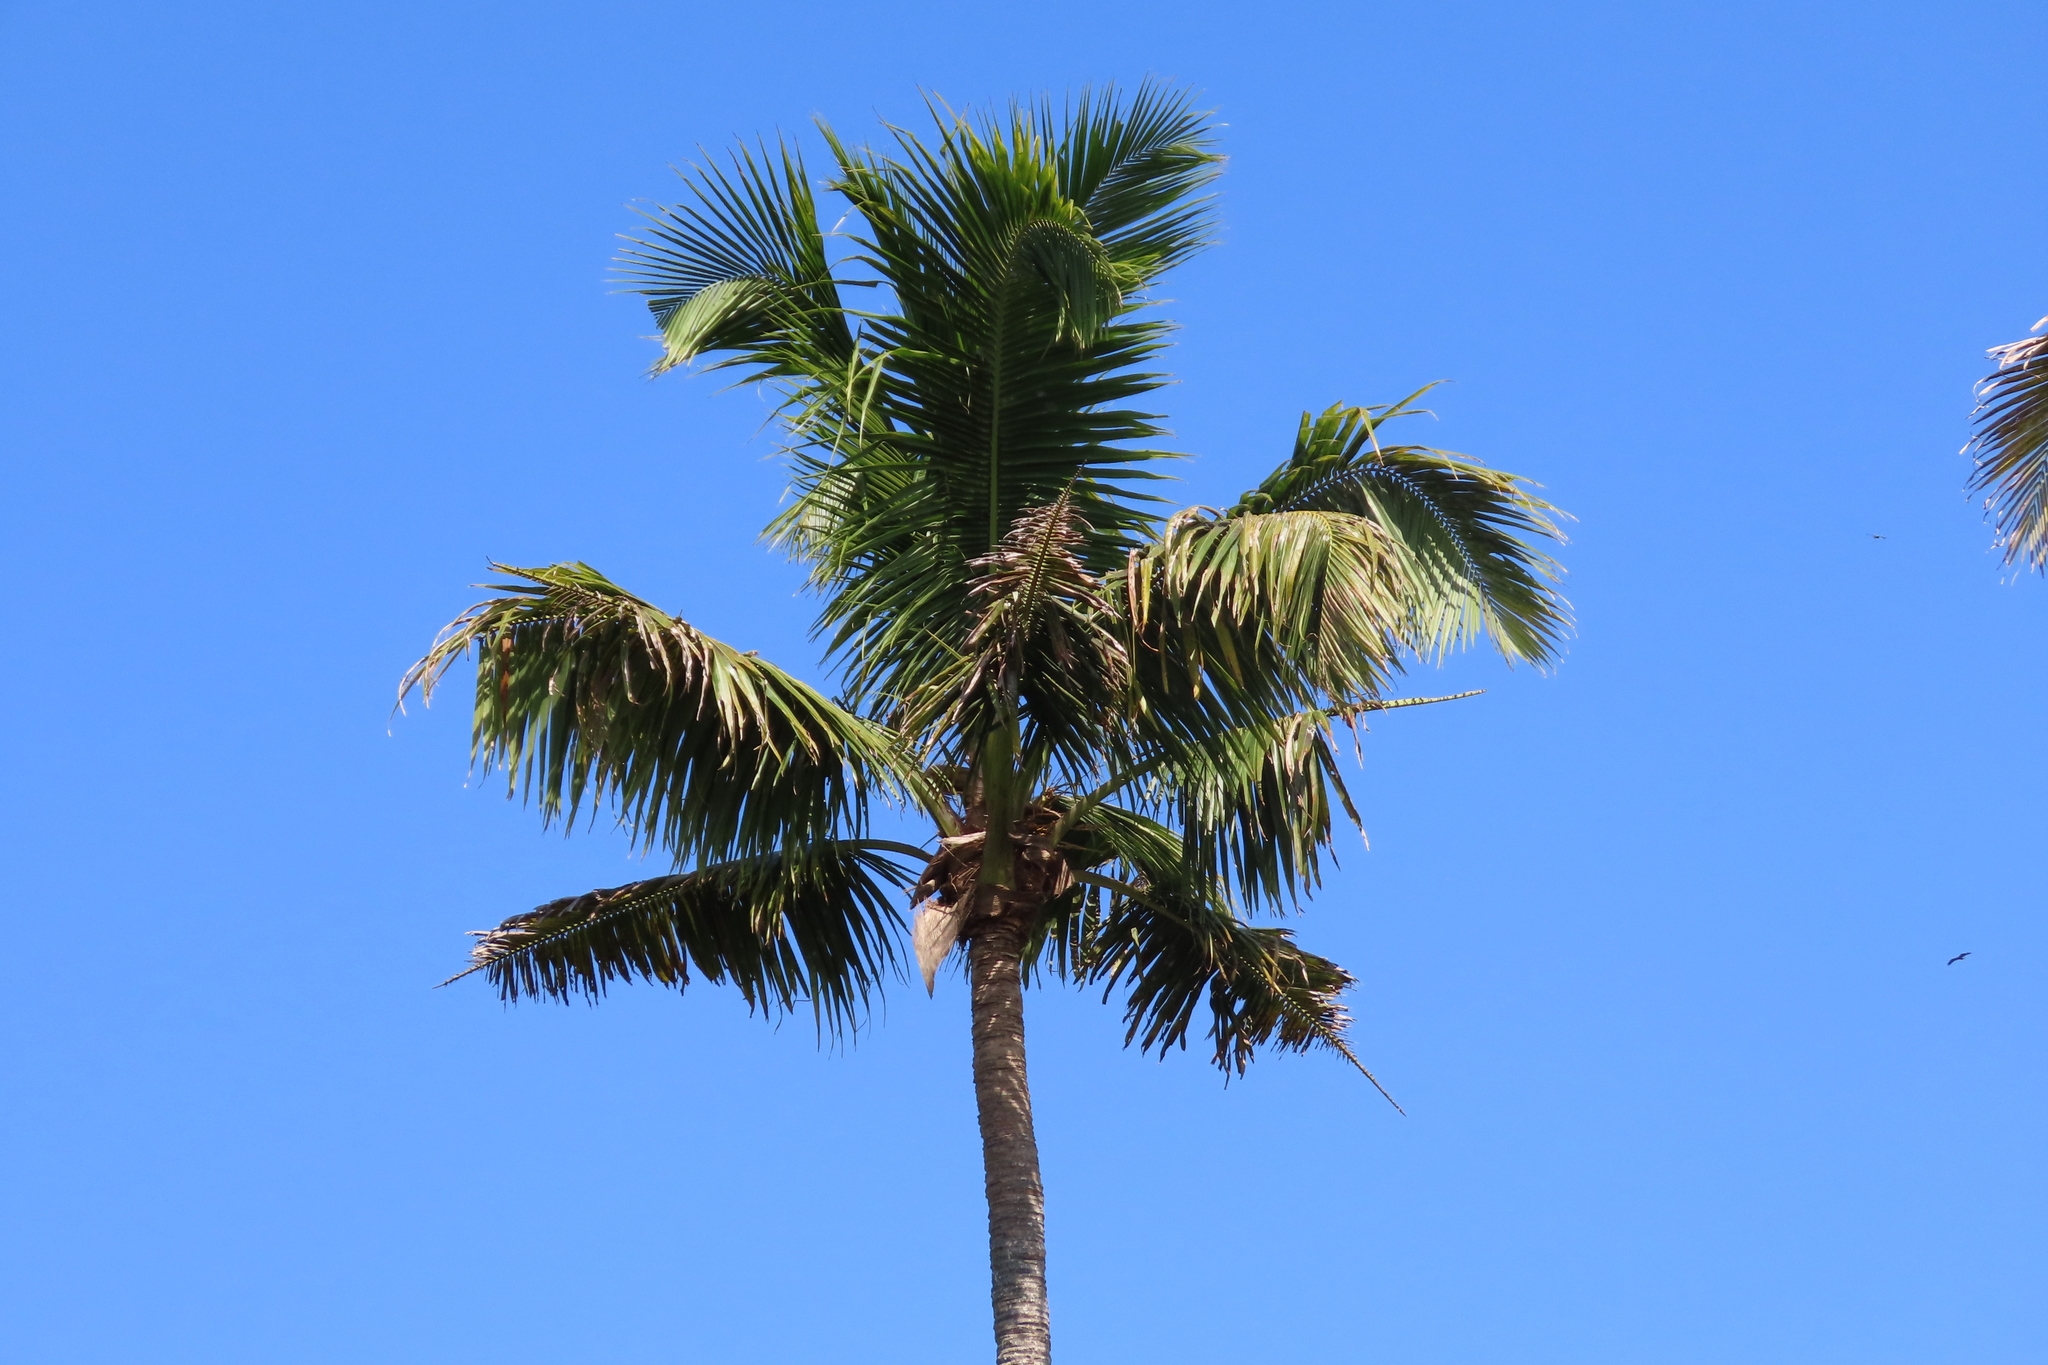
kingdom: Plantae
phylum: Tracheophyta
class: Liliopsida
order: Arecales
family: Arecaceae
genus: Cocos
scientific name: Cocos nucifera
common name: Coconut palm
